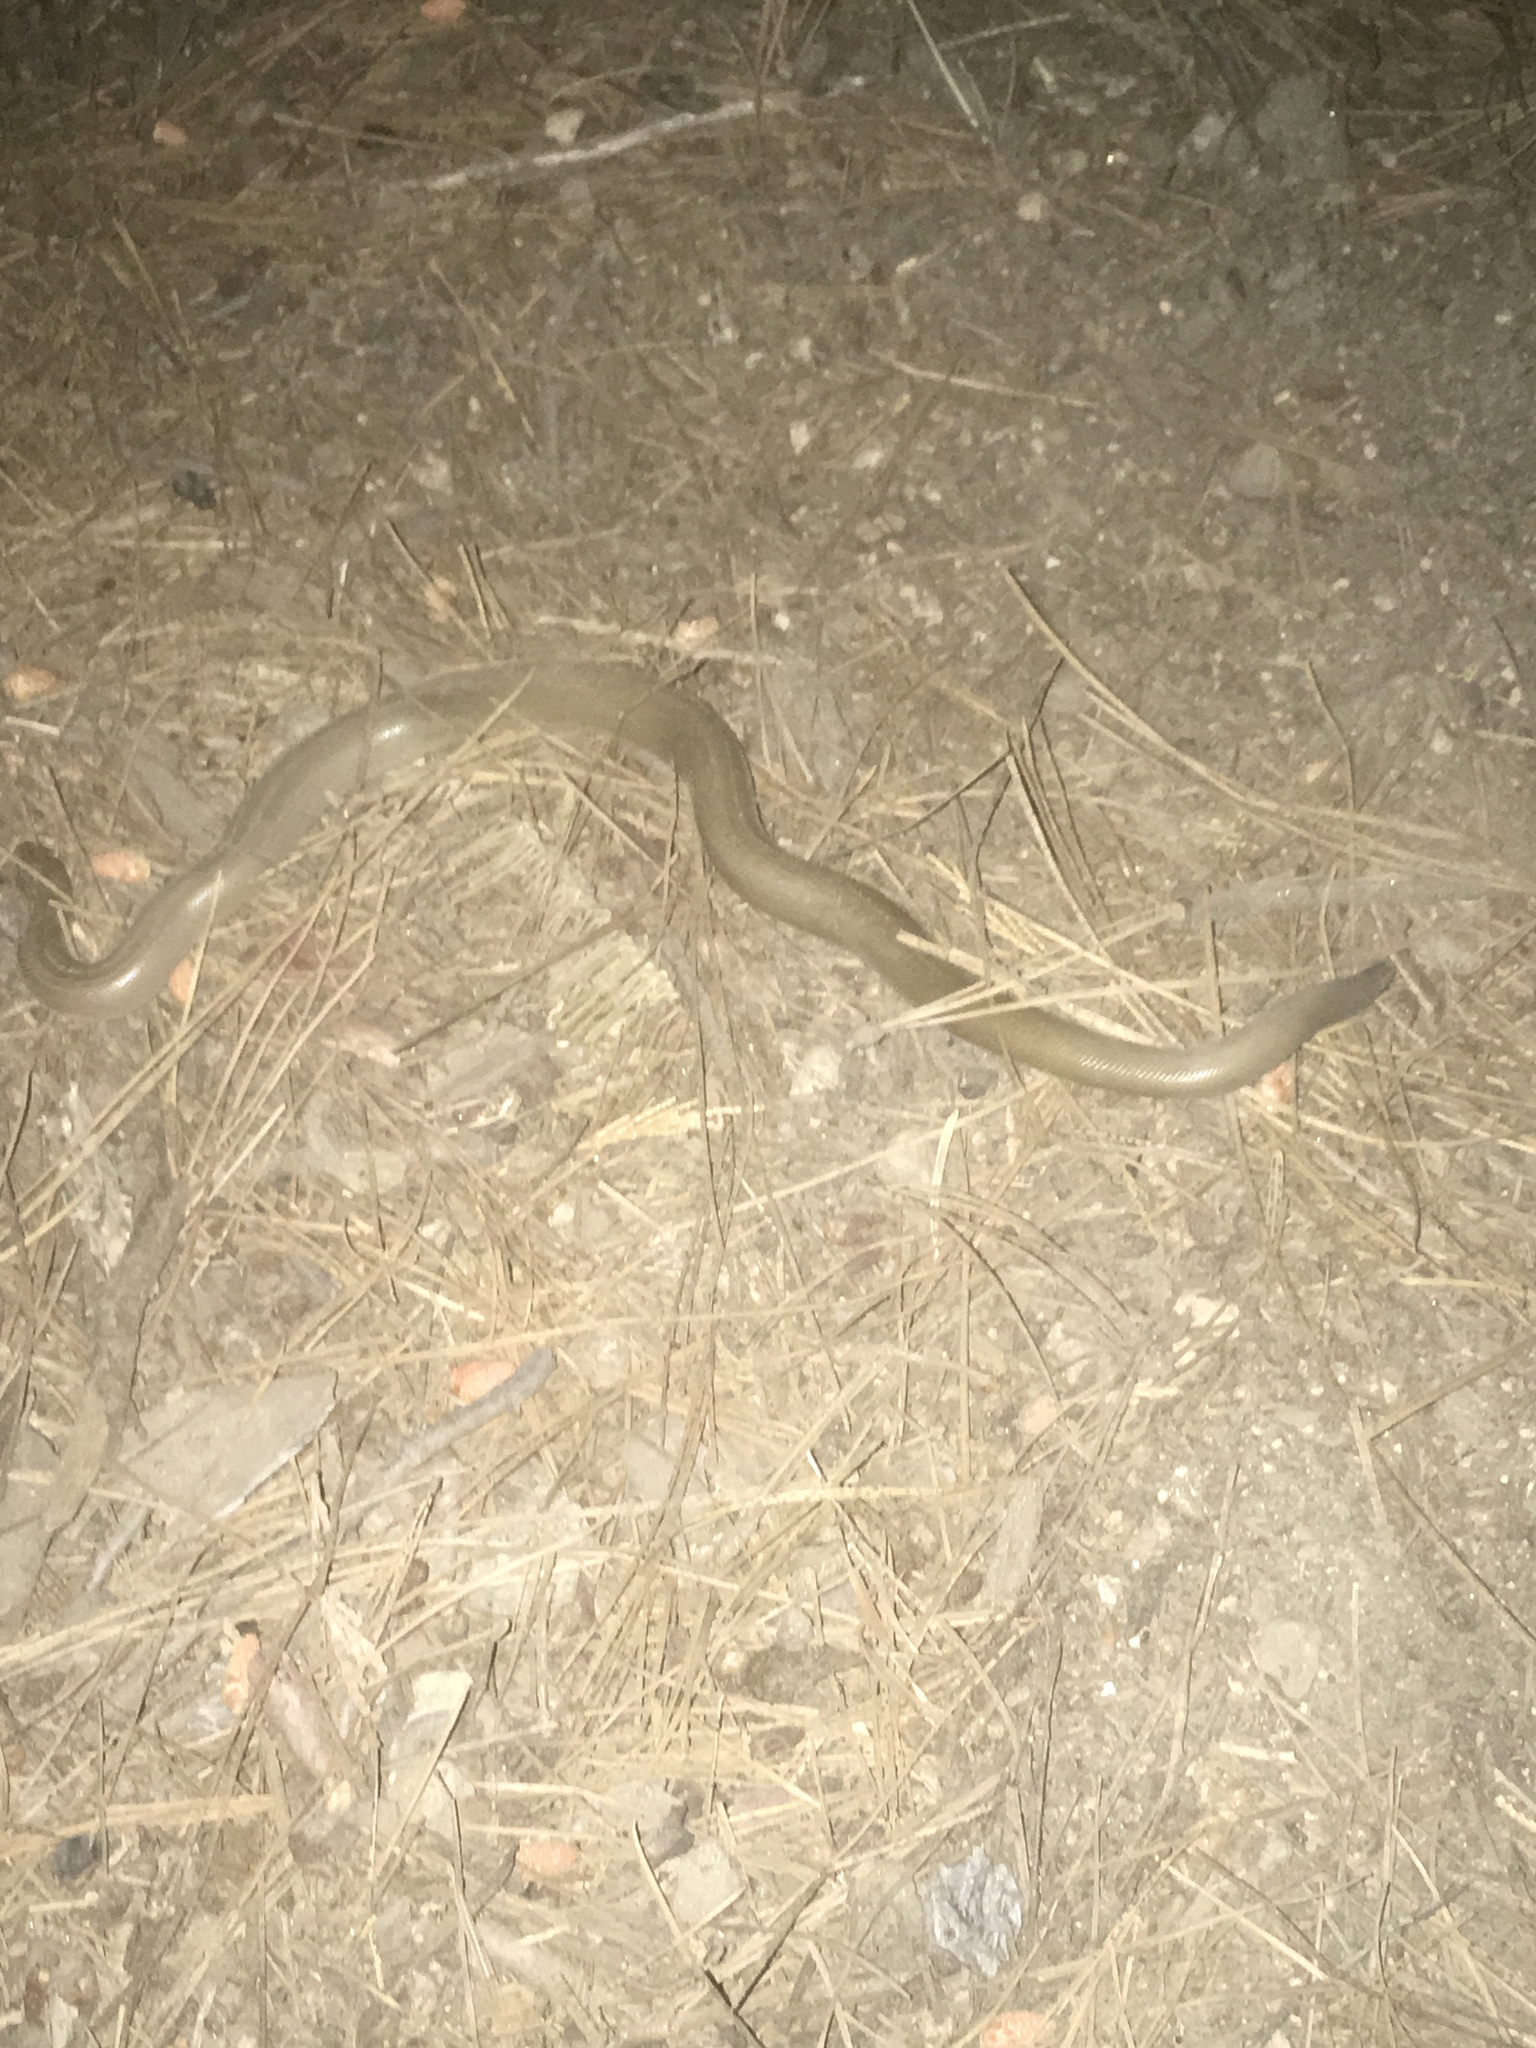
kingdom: Animalia
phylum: Chordata
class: Squamata
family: Boidae
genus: Charina
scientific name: Charina bottae
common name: Northern rubber boa
